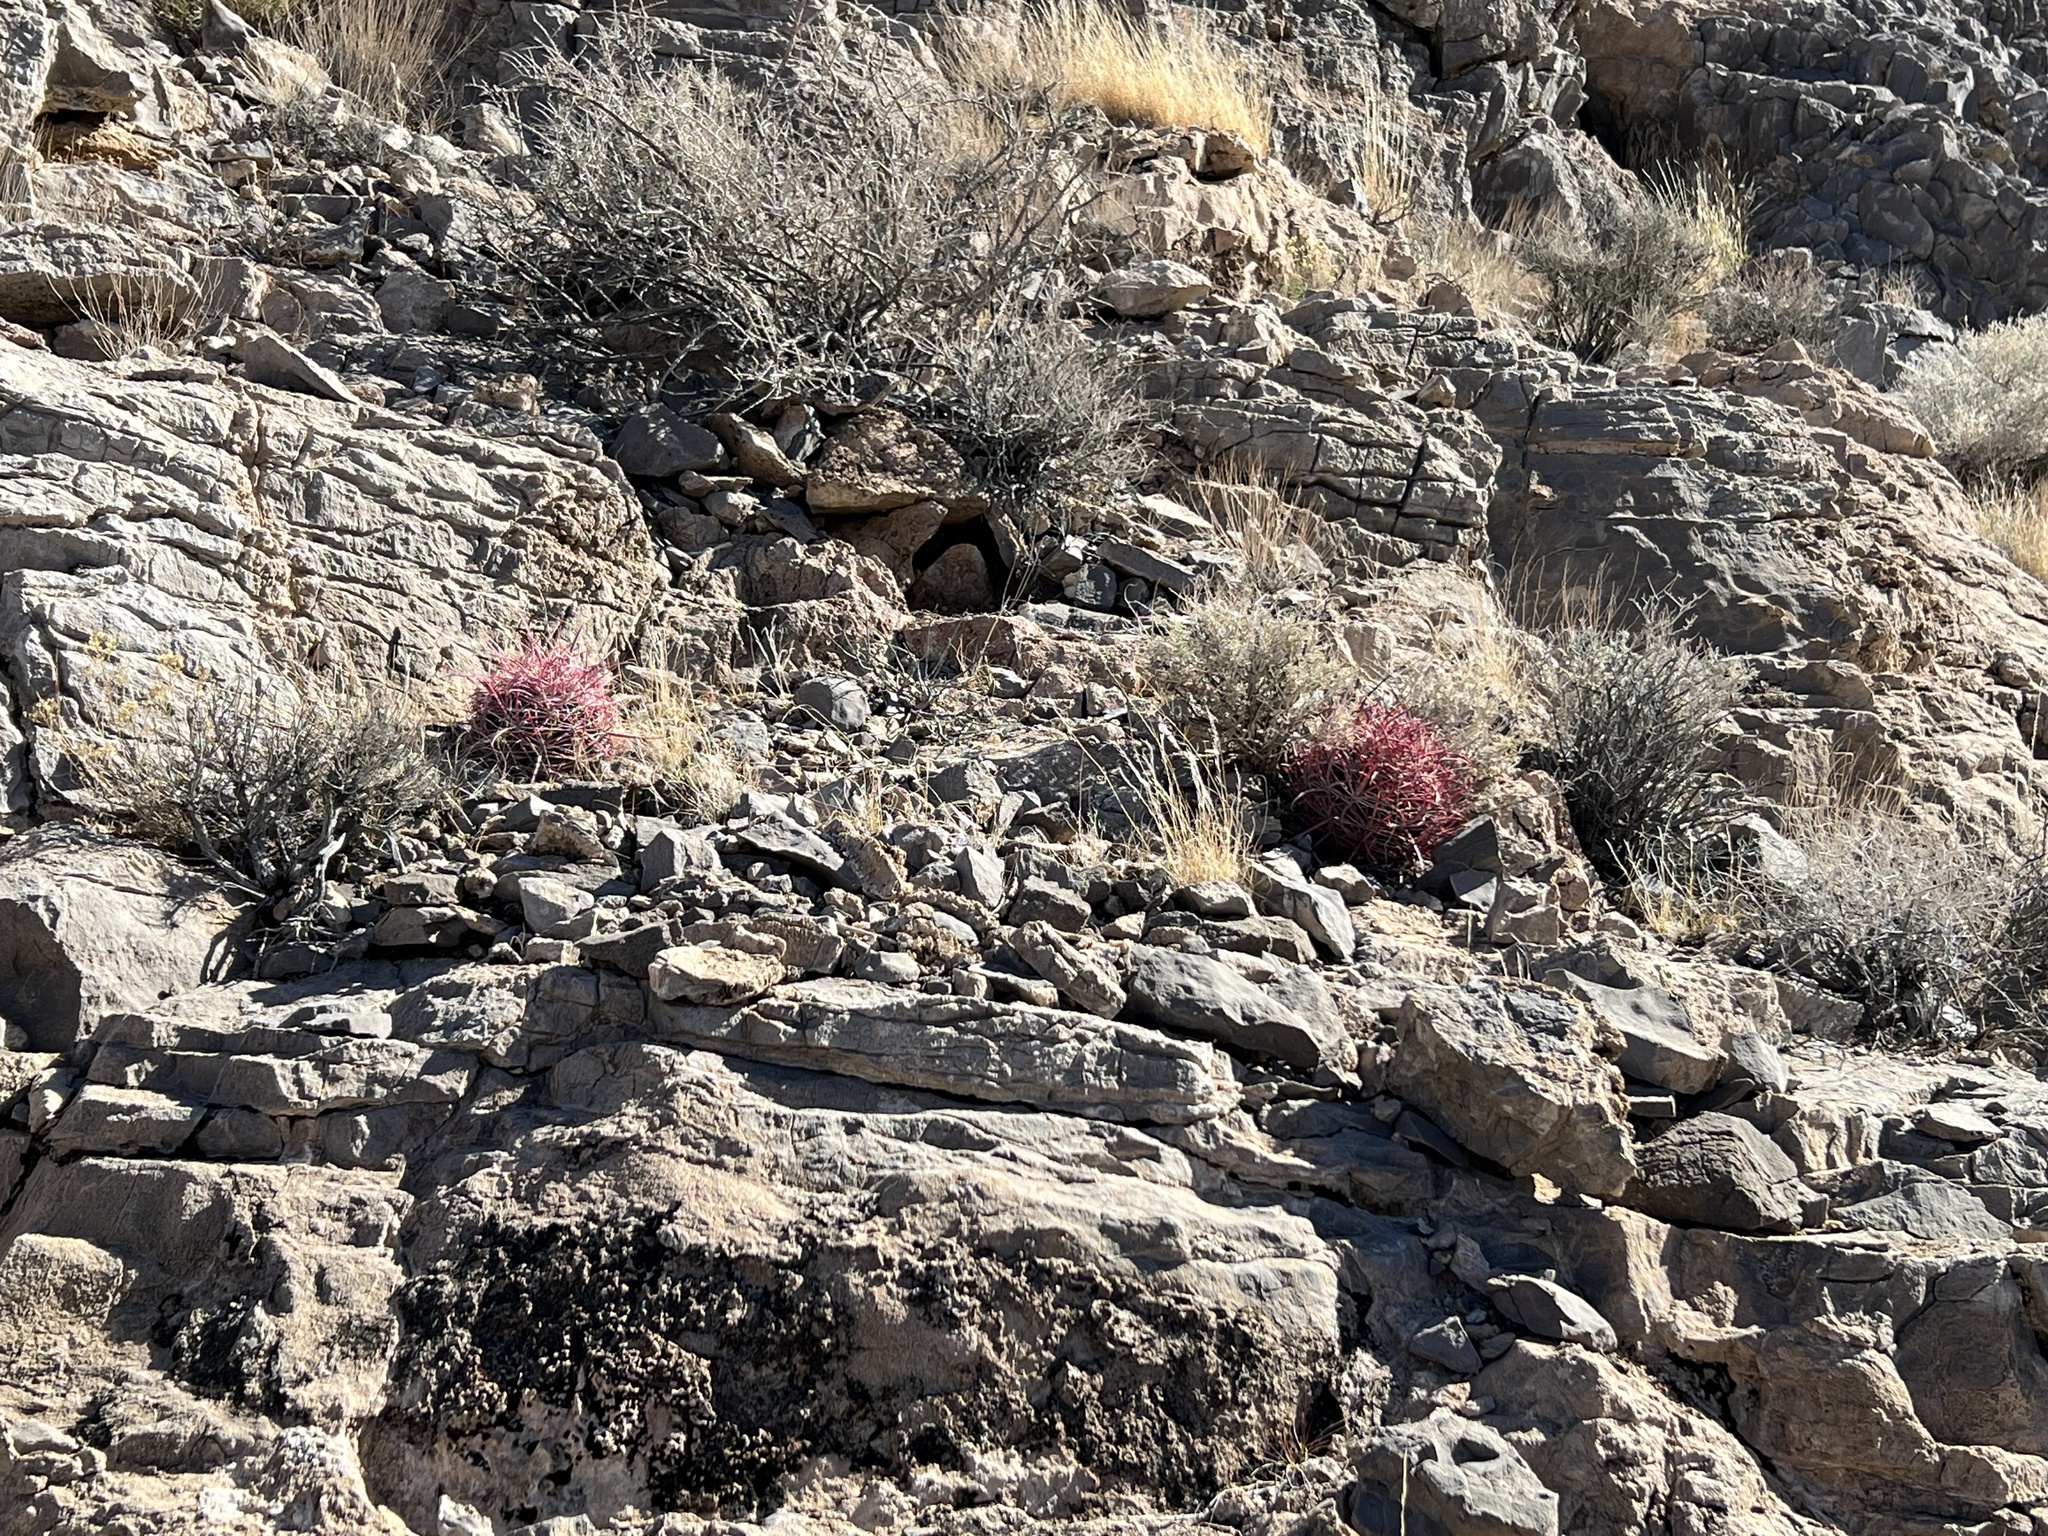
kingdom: Plantae
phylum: Tracheophyta
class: Magnoliopsida
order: Caryophyllales
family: Cactaceae
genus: Ferocactus
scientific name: Ferocactus cylindraceus
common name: California barrel cactus
